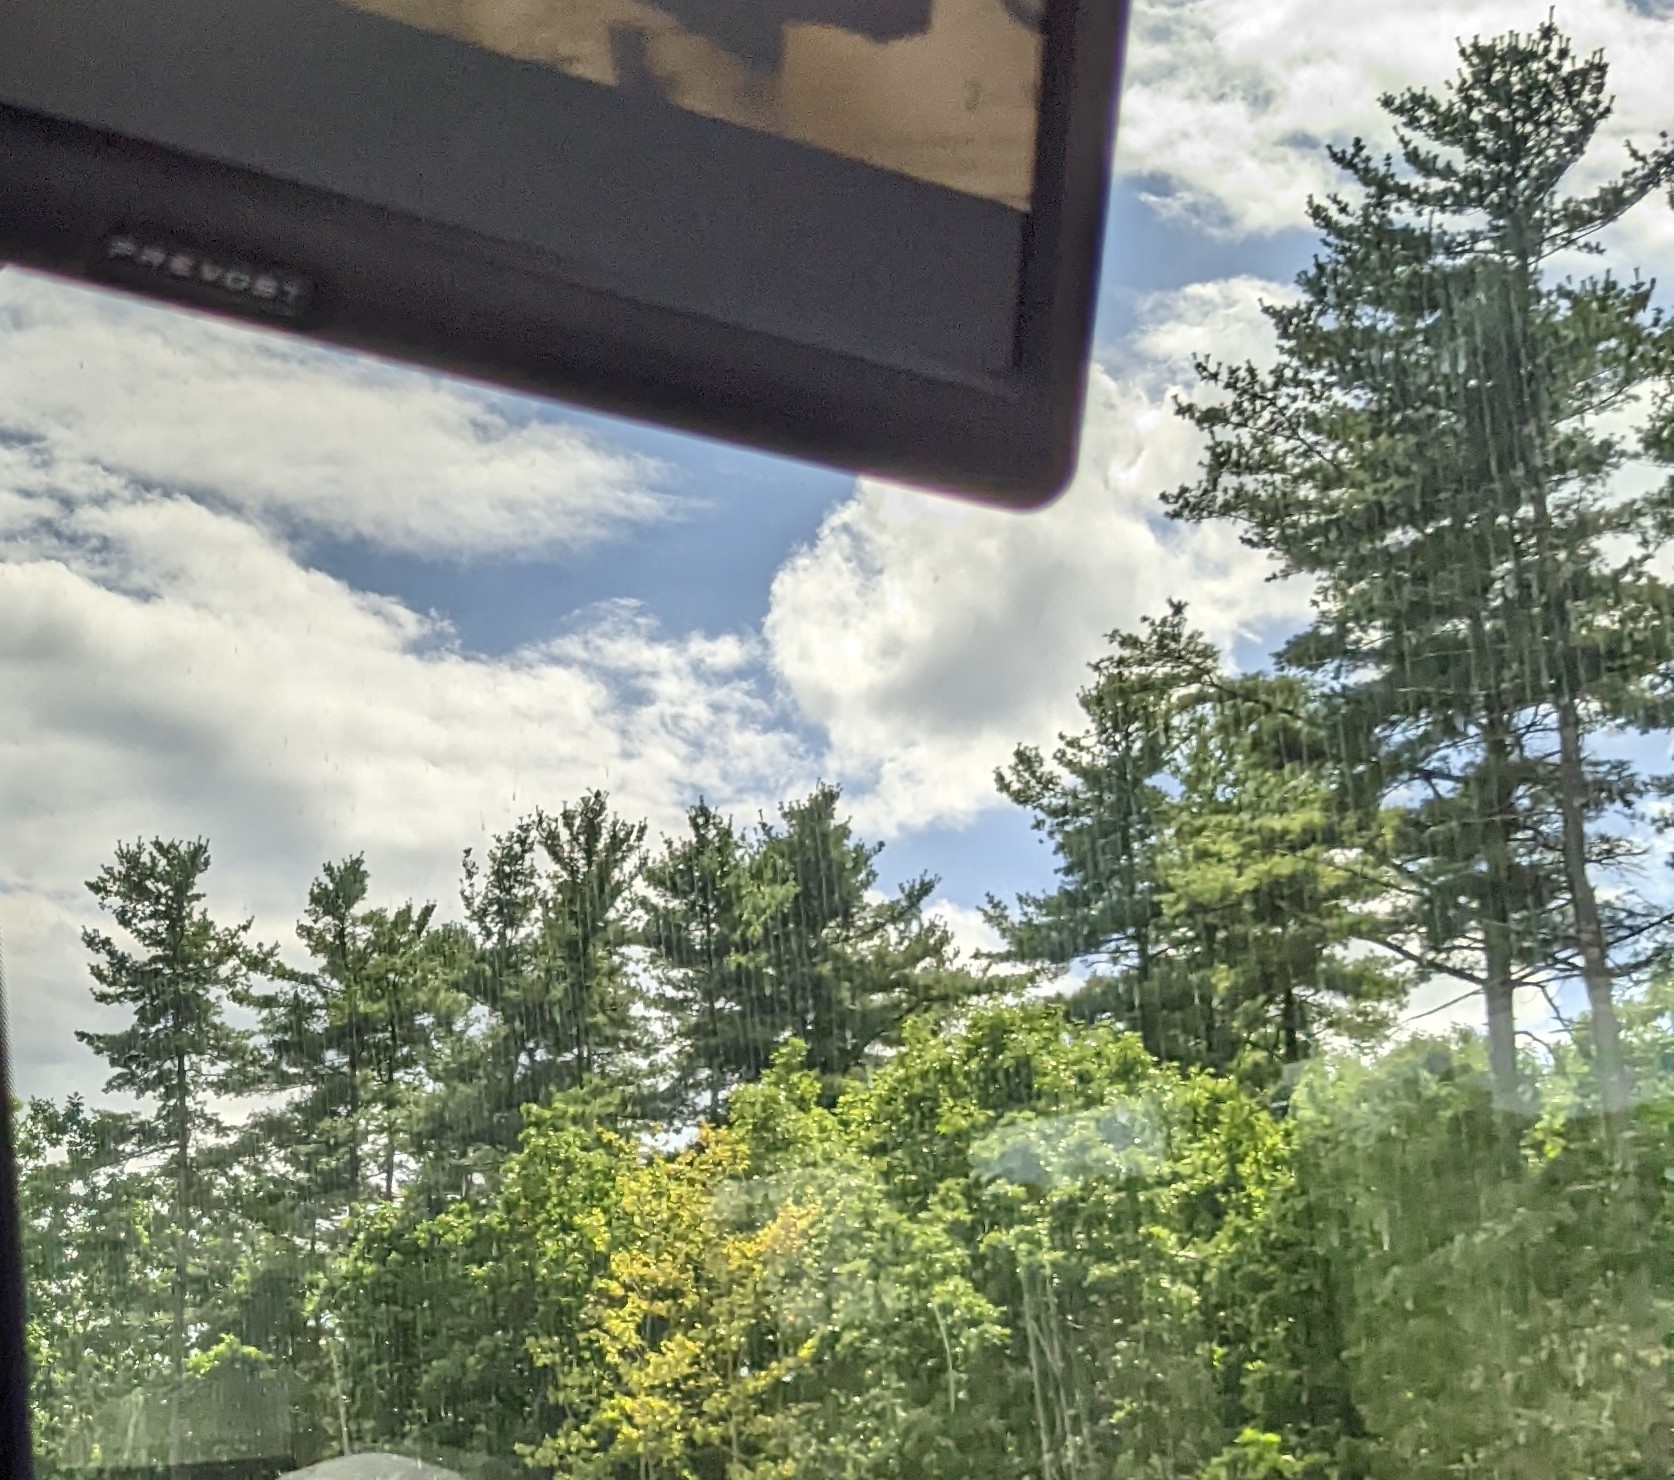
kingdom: Plantae
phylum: Tracheophyta
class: Pinopsida
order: Pinales
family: Pinaceae
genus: Pinus
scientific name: Pinus strobus
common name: Weymouth pine
